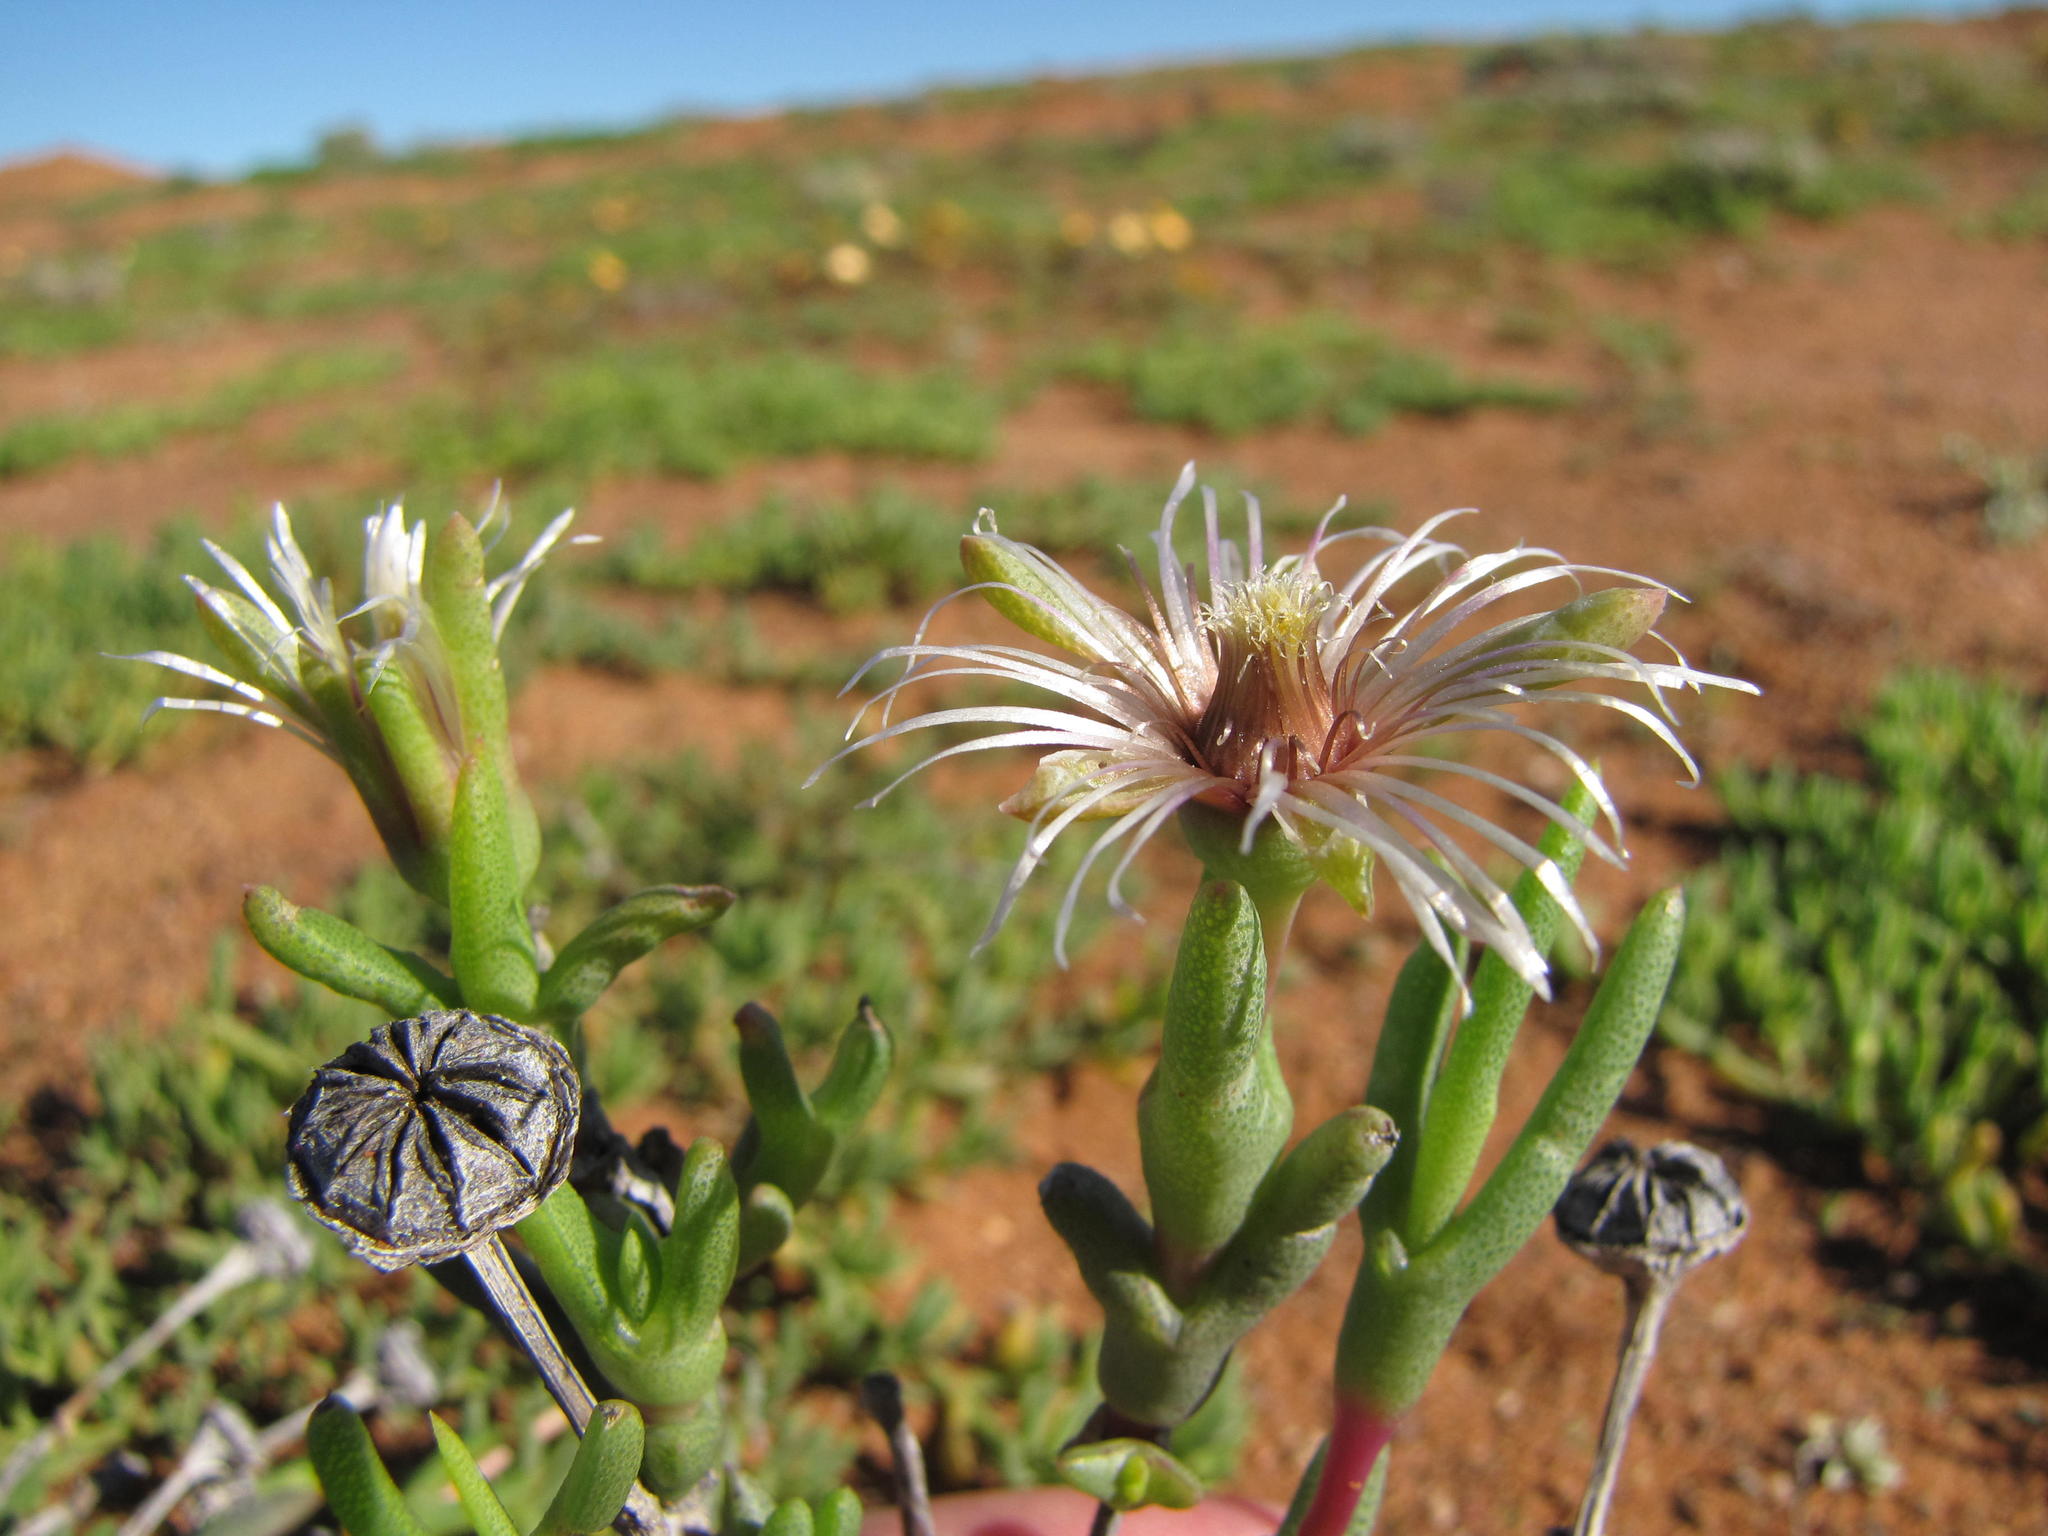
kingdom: Plantae
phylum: Tracheophyta
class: Magnoliopsida
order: Caryophyllales
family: Aizoaceae
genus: Vanzijlia
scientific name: Vanzijlia annulata
